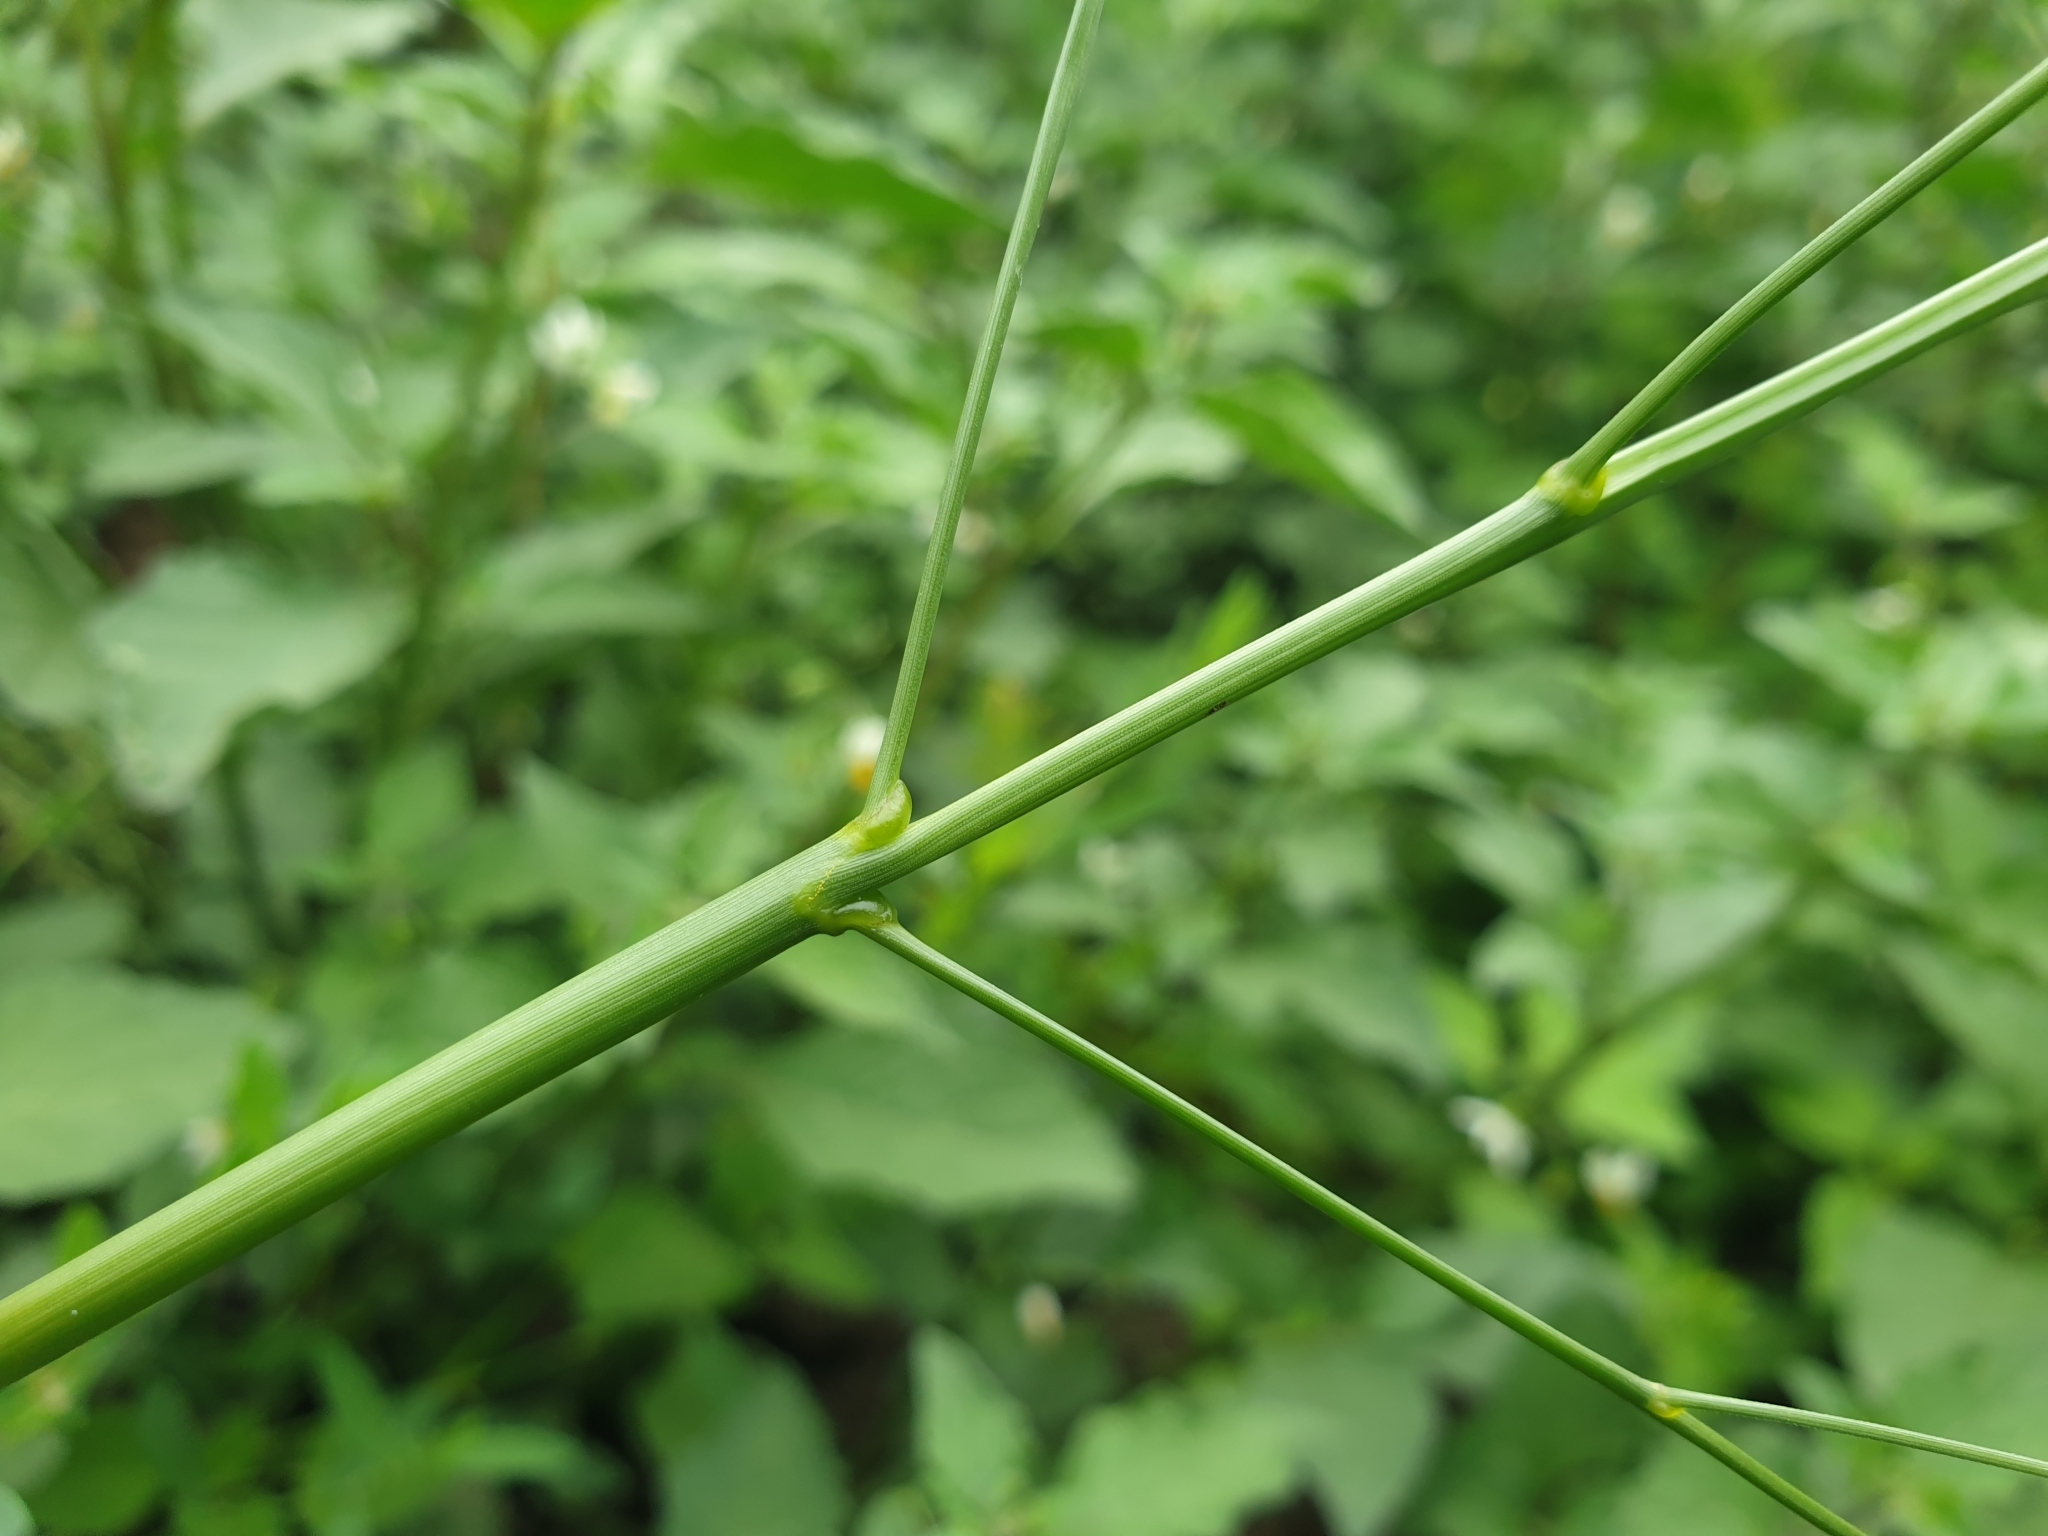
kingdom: Plantae
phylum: Tracheophyta
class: Liliopsida
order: Poales
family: Poaceae
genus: Panicum
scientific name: Panicum dichotomiflorum
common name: Autumn millet
